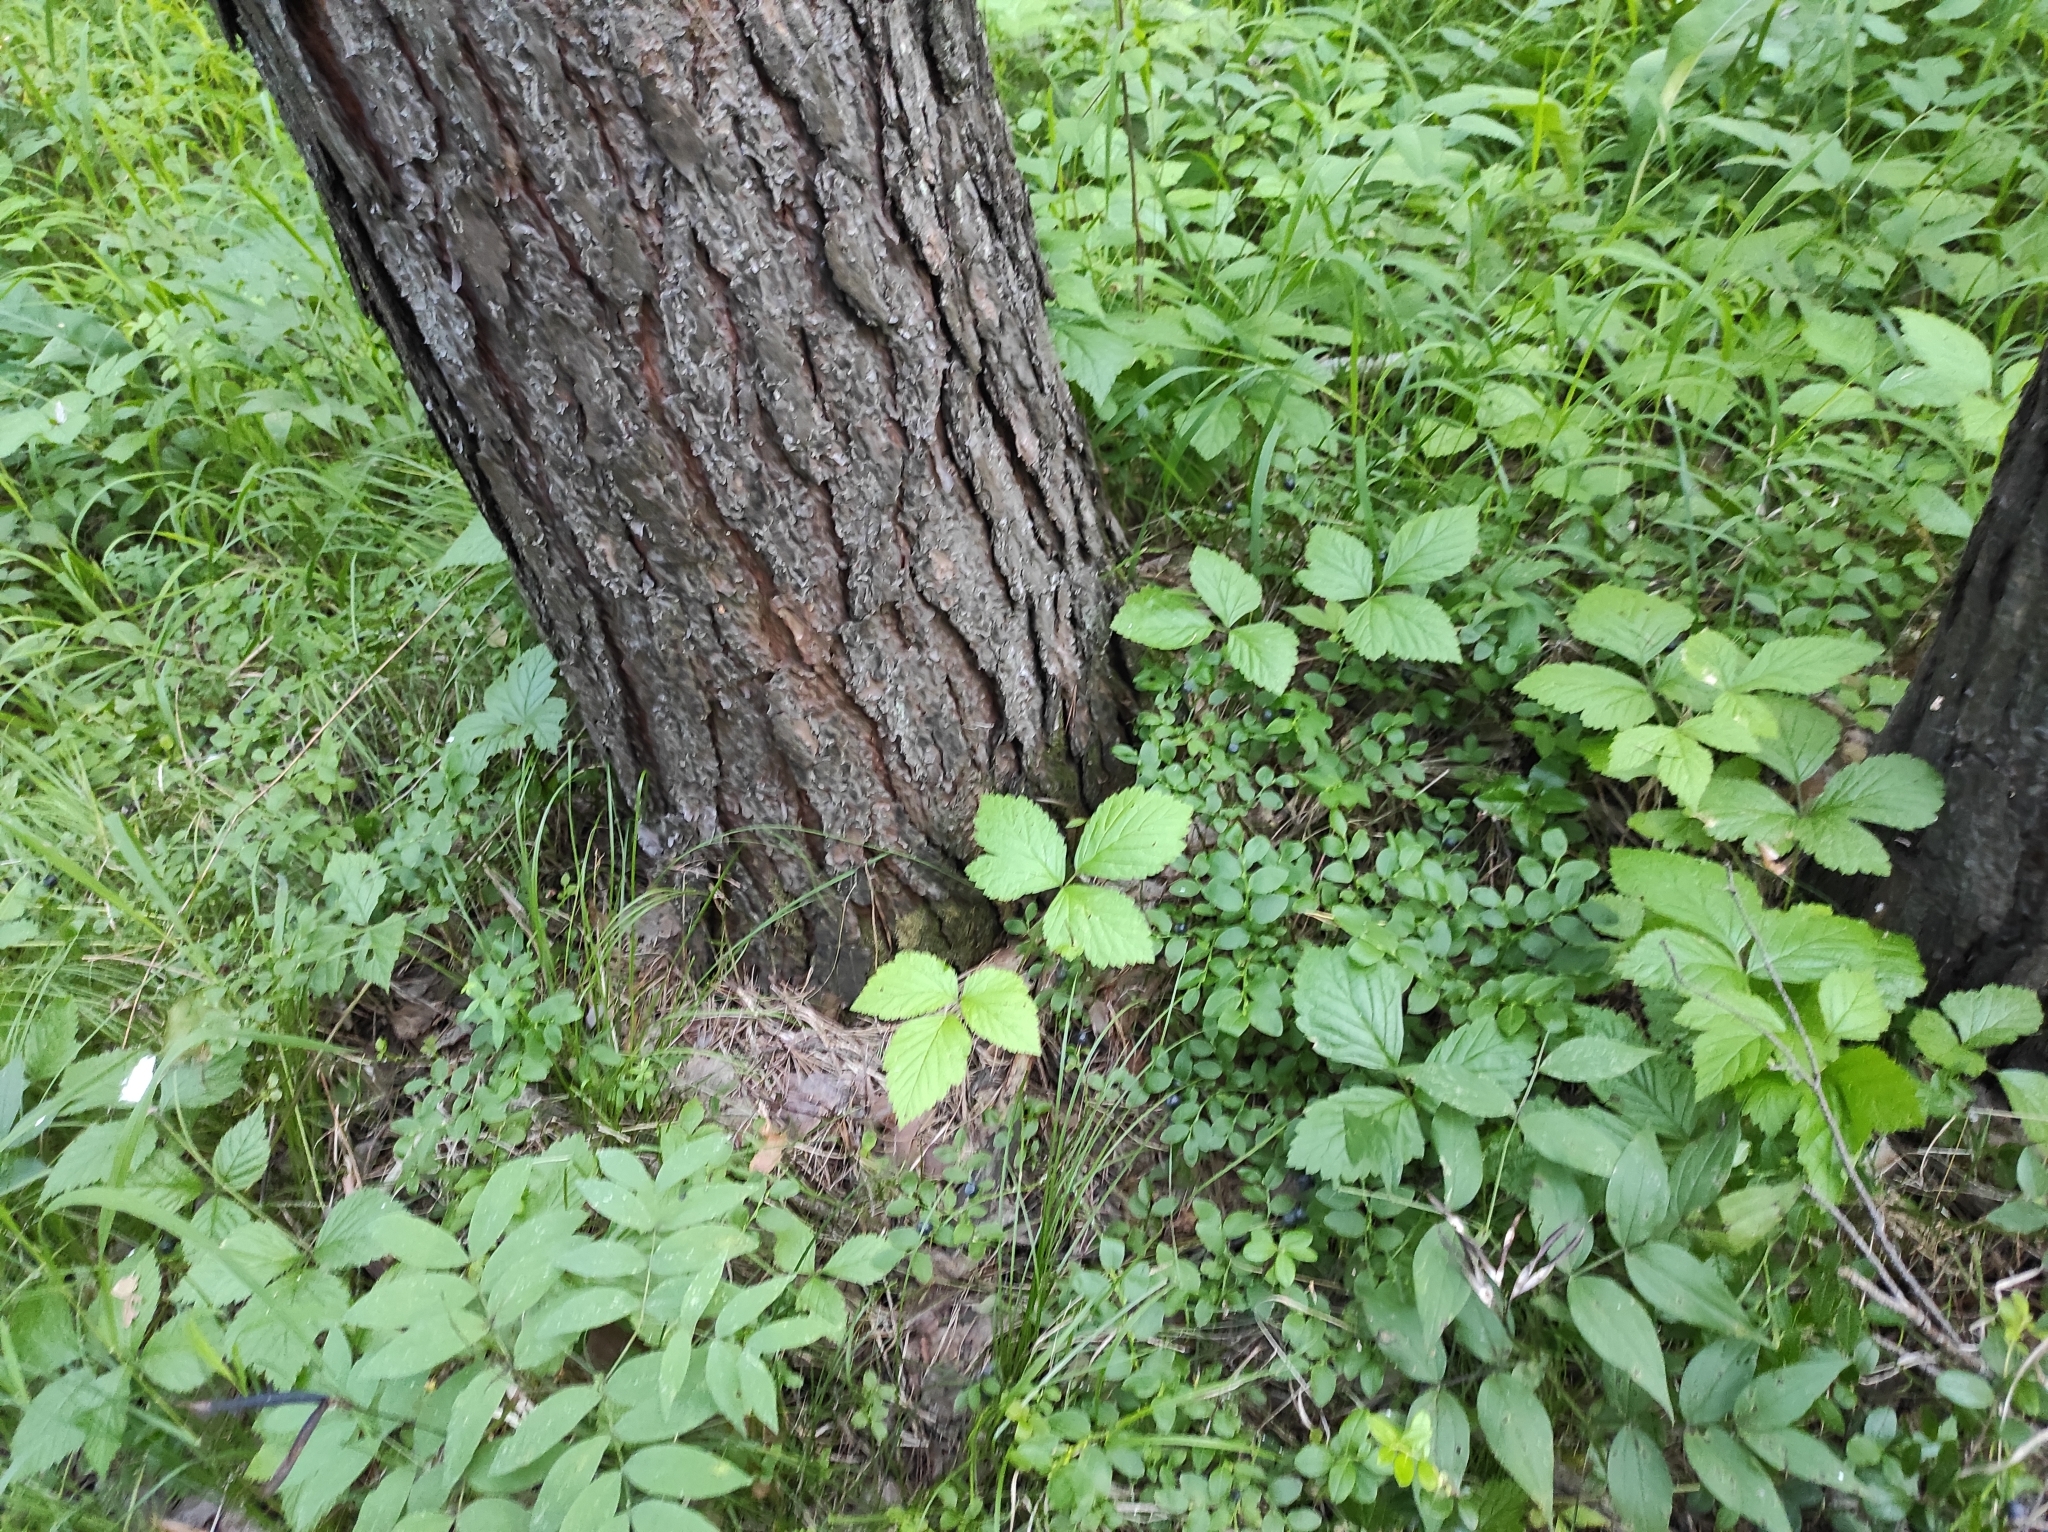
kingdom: Plantae
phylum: Tracheophyta
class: Pinopsida
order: Pinales
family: Pinaceae
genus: Pinus
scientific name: Pinus sylvestris
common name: Scots pine
